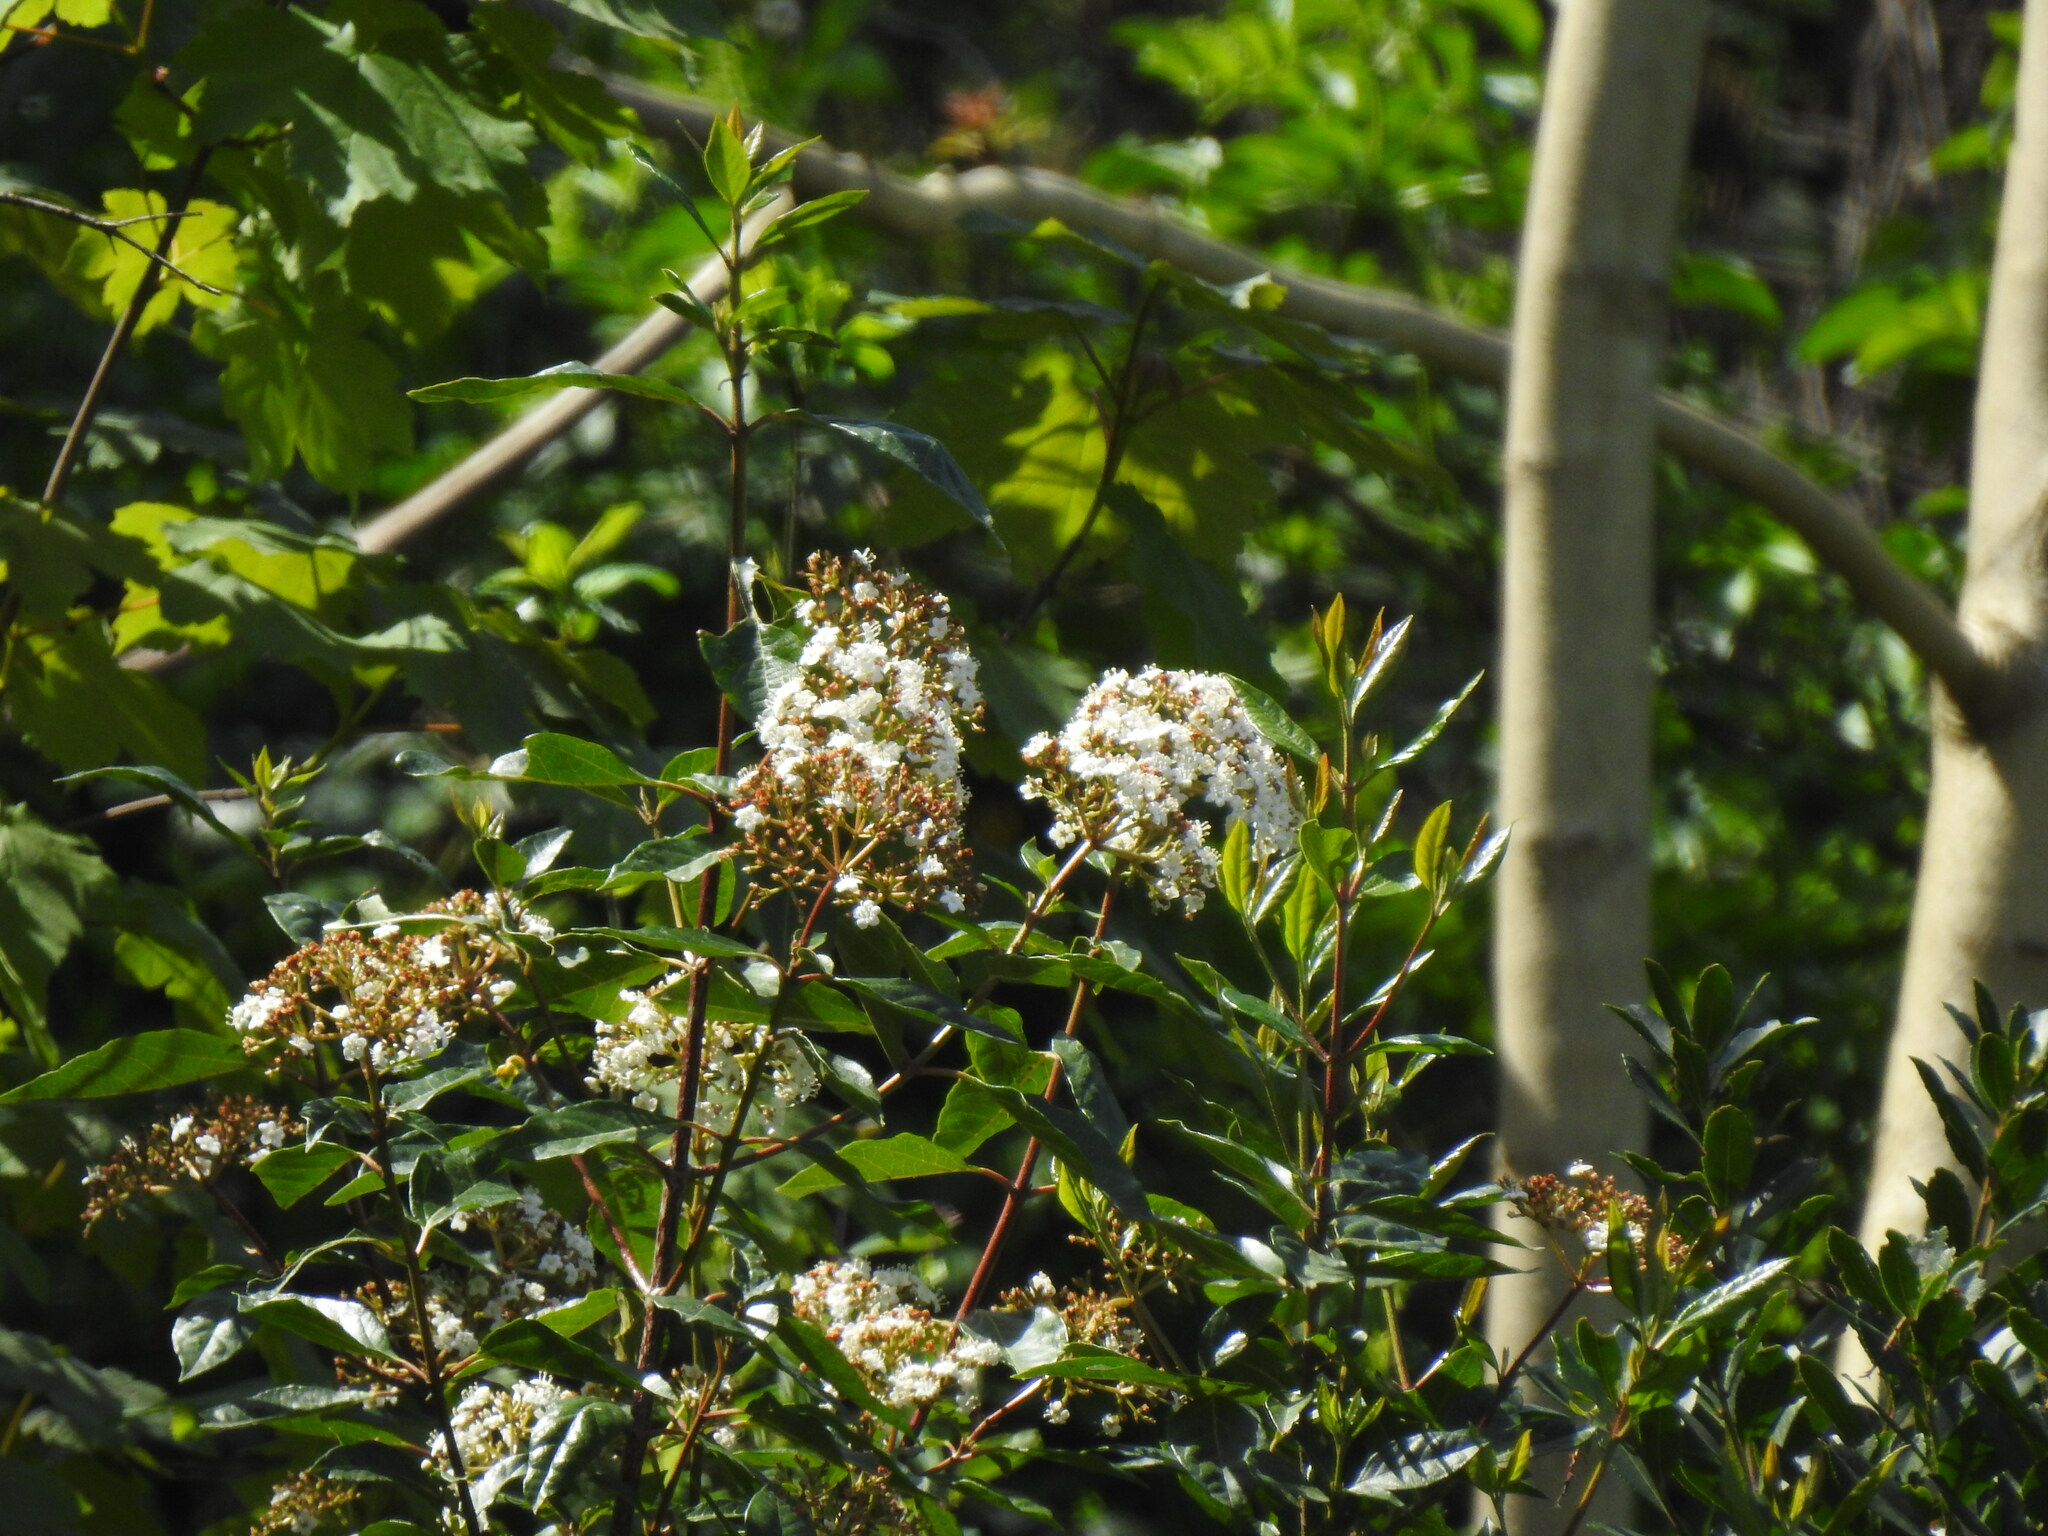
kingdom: Plantae
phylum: Tracheophyta
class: Magnoliopsida
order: Dipsacales
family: Viburnaceae
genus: Viburnum
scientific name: Viburnum tinus
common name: Laurustinus
